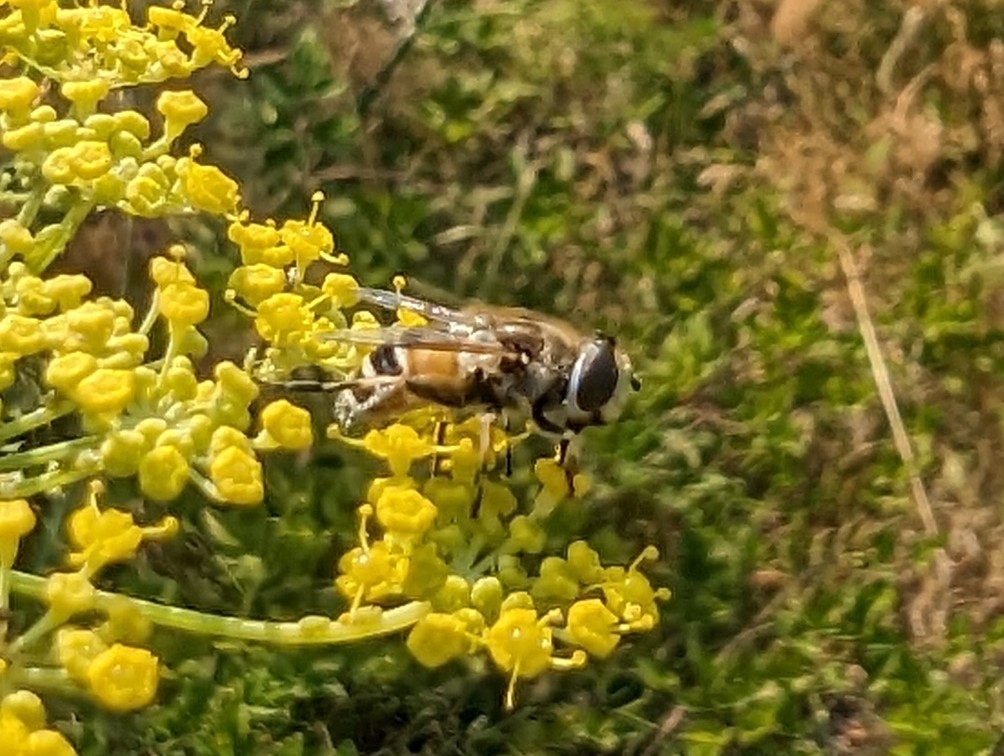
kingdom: Animalia
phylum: Arthropoda
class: Insecta
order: Diptera
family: Syrphidae
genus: Eristalis
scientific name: Eristalis arbustorum
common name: Hover fly
